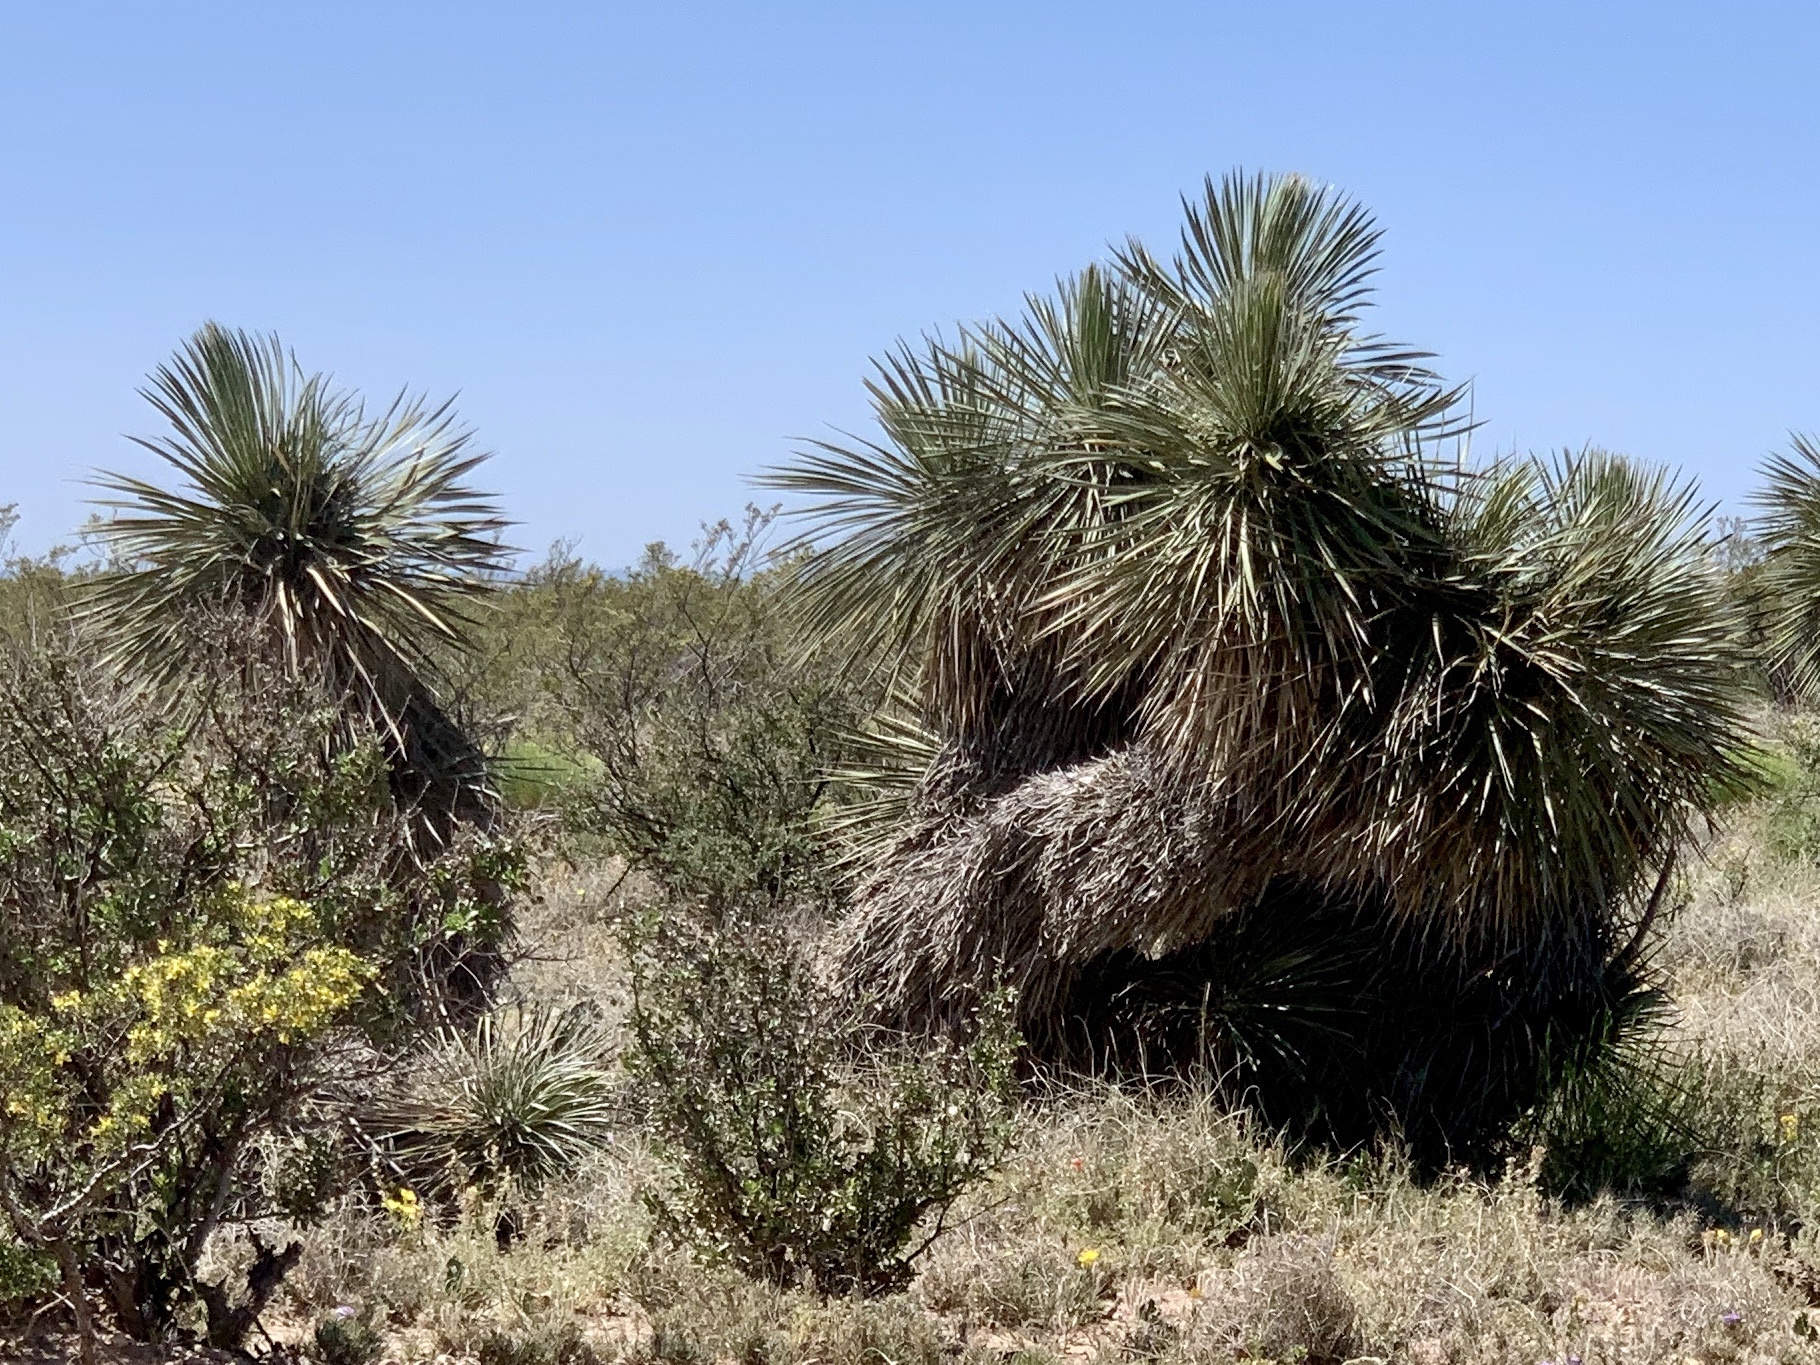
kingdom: Plantae
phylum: Tracheophyta
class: Liliopsida
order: Asparagales
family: Asparagaceae
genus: Yucca
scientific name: Yucca elata
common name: Palmella
